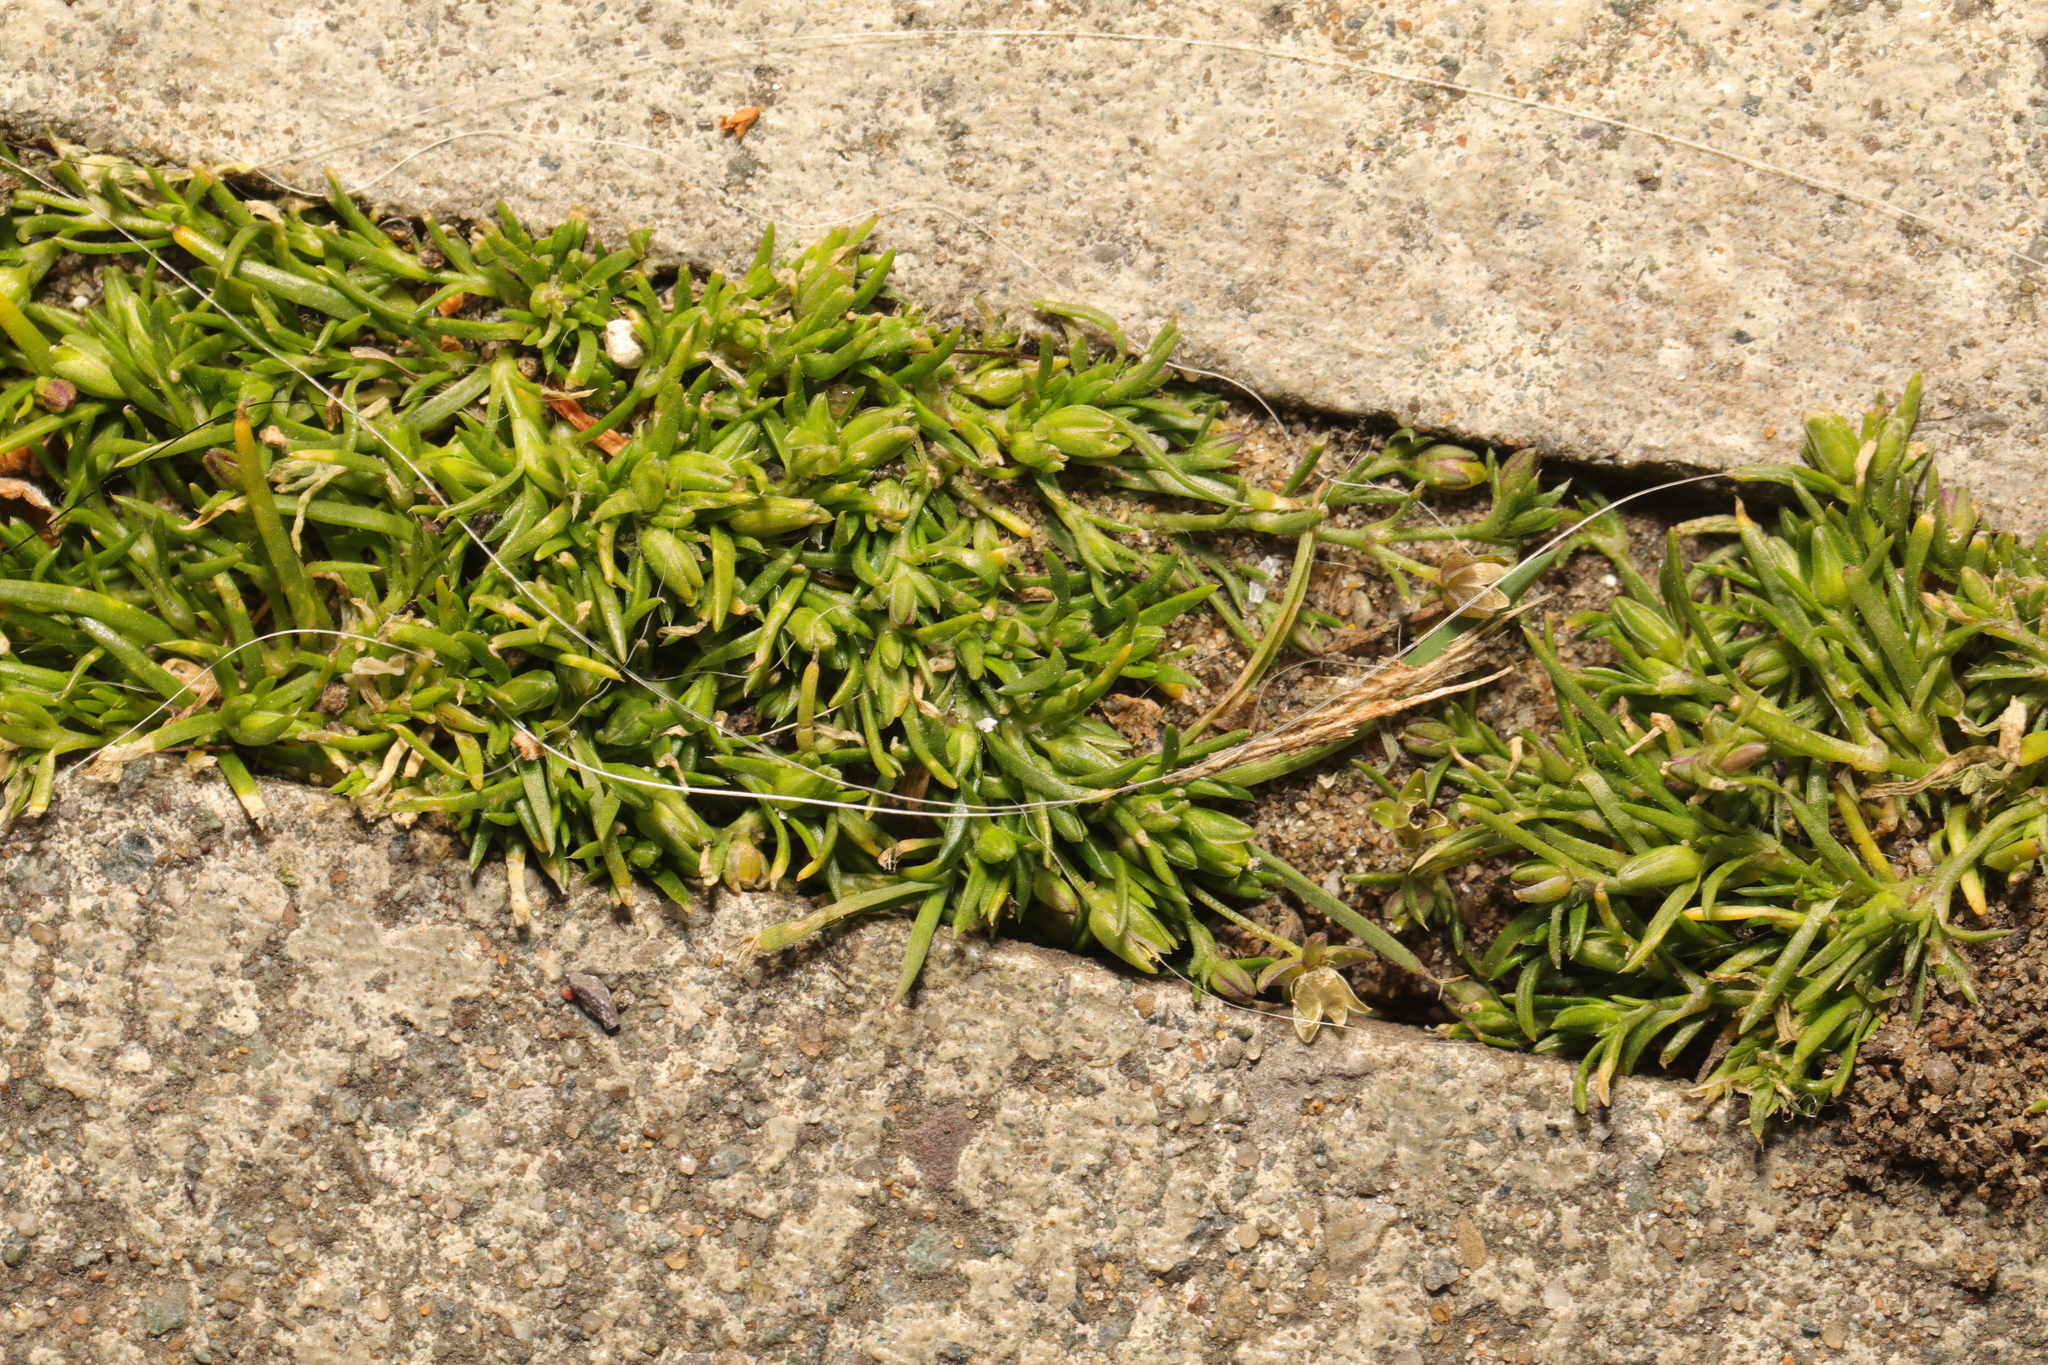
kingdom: Plantae
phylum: Tracheophyta
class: Magnoliopsida
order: Caryophyllales
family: Caryophyllaceae
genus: Sagina
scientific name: Sagina procumbens
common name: Procumbent pearlwort
